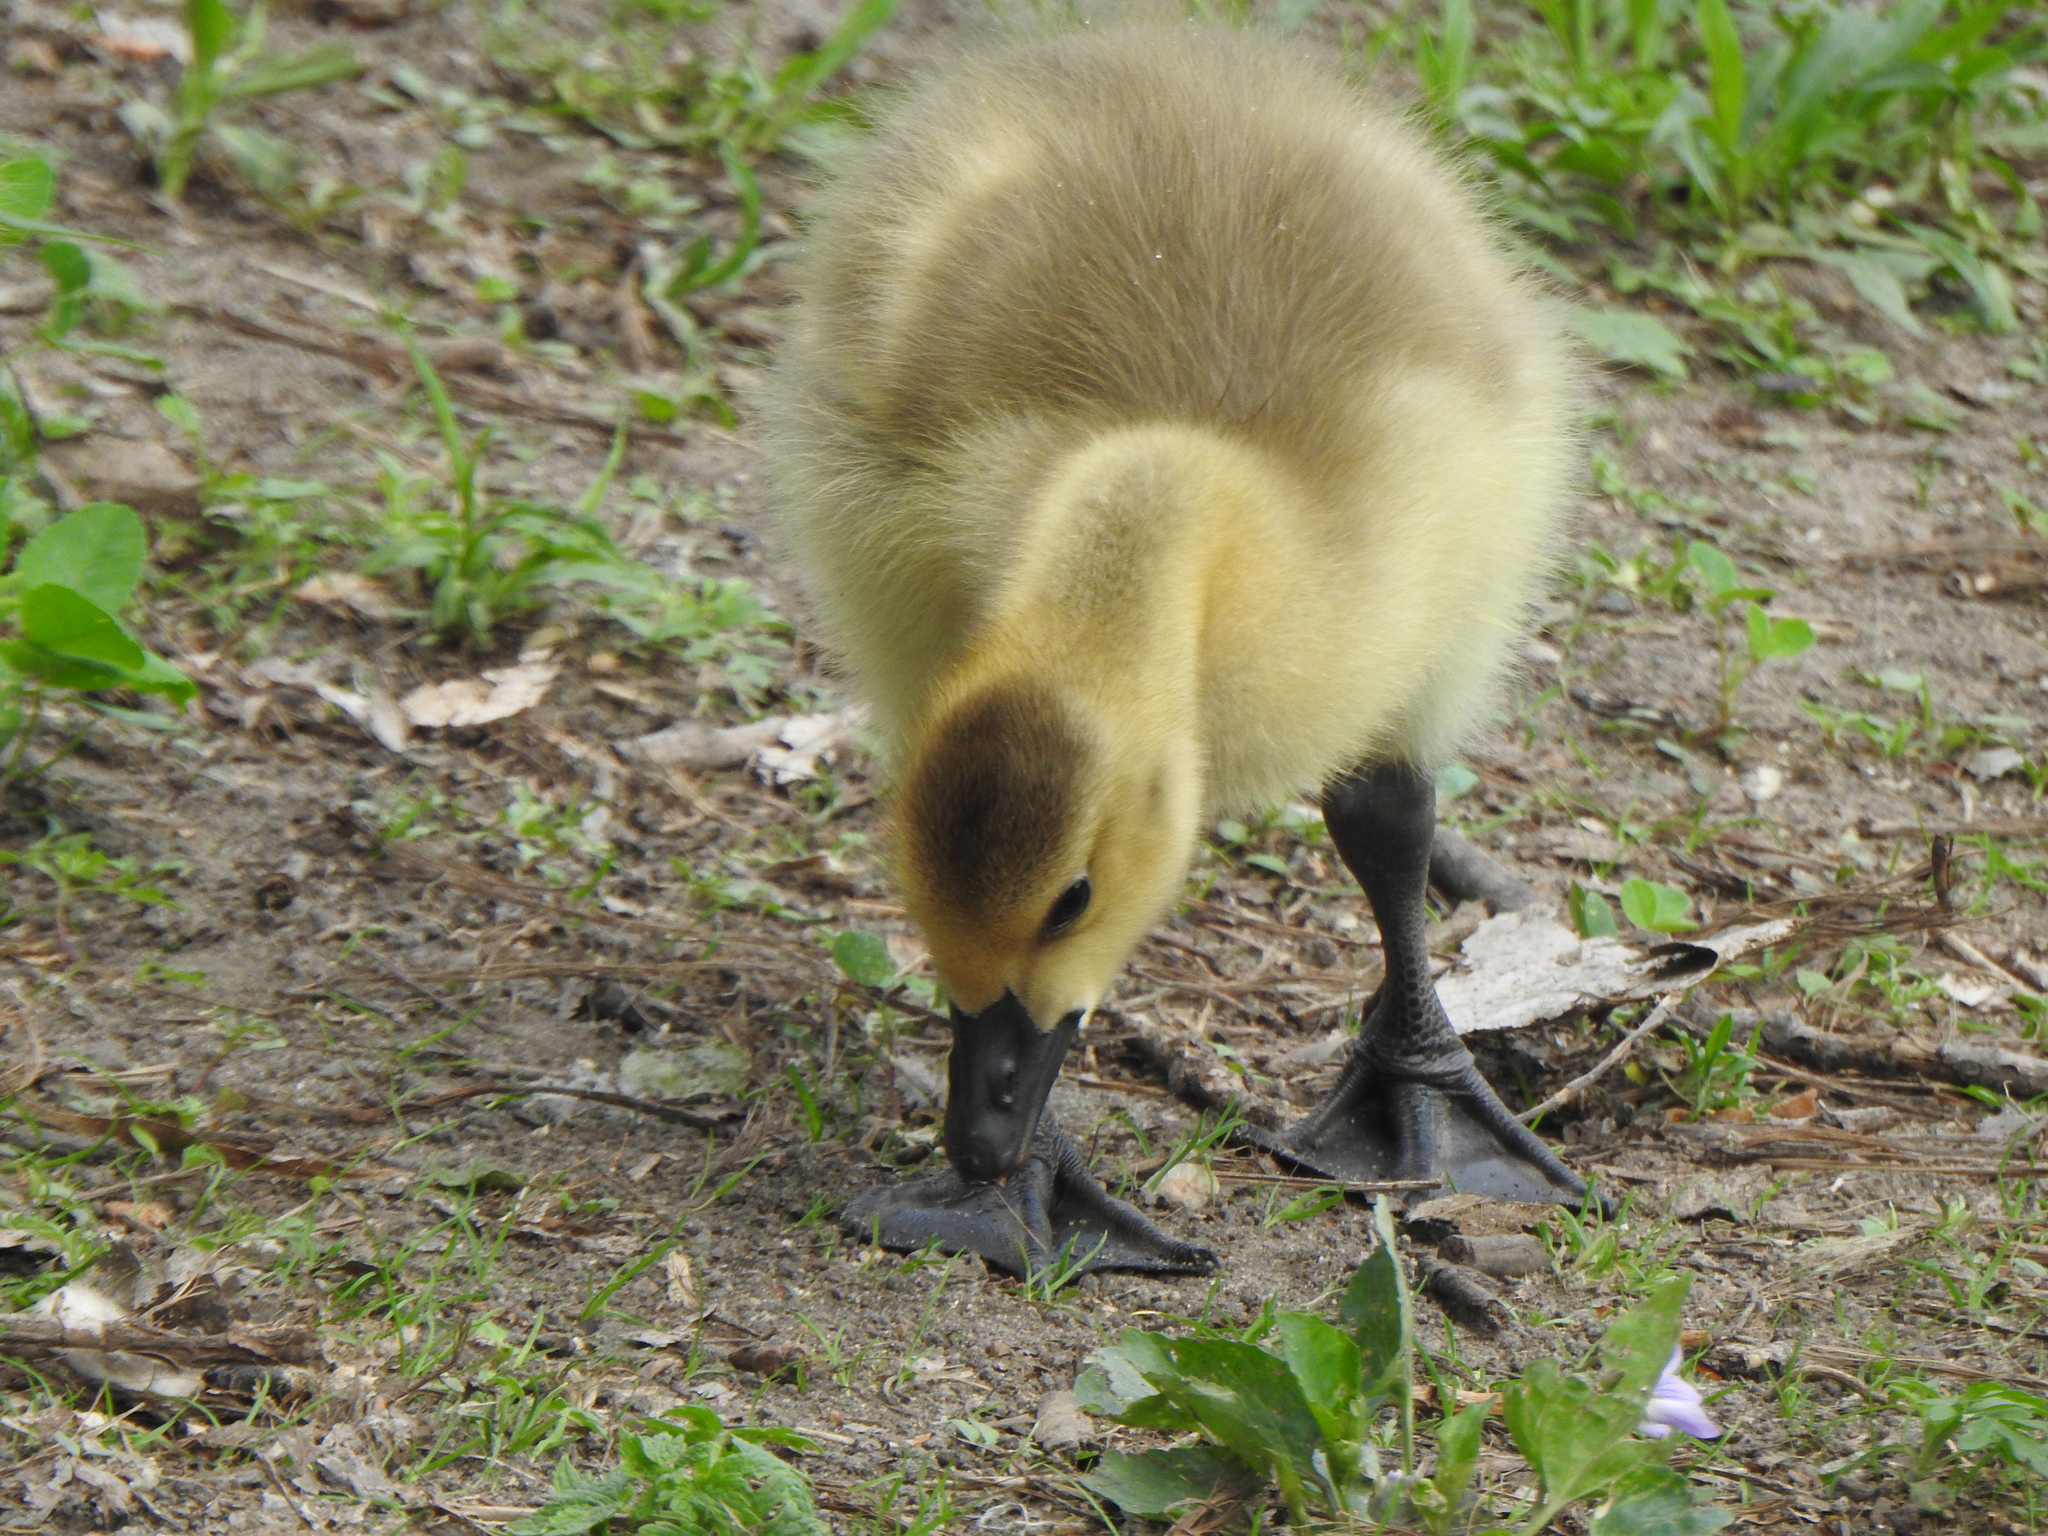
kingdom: Animalia
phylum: Chordata
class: Aves
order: Anseriformes
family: Anatidae
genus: Branta
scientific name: Branta canadensis
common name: Canada goose
